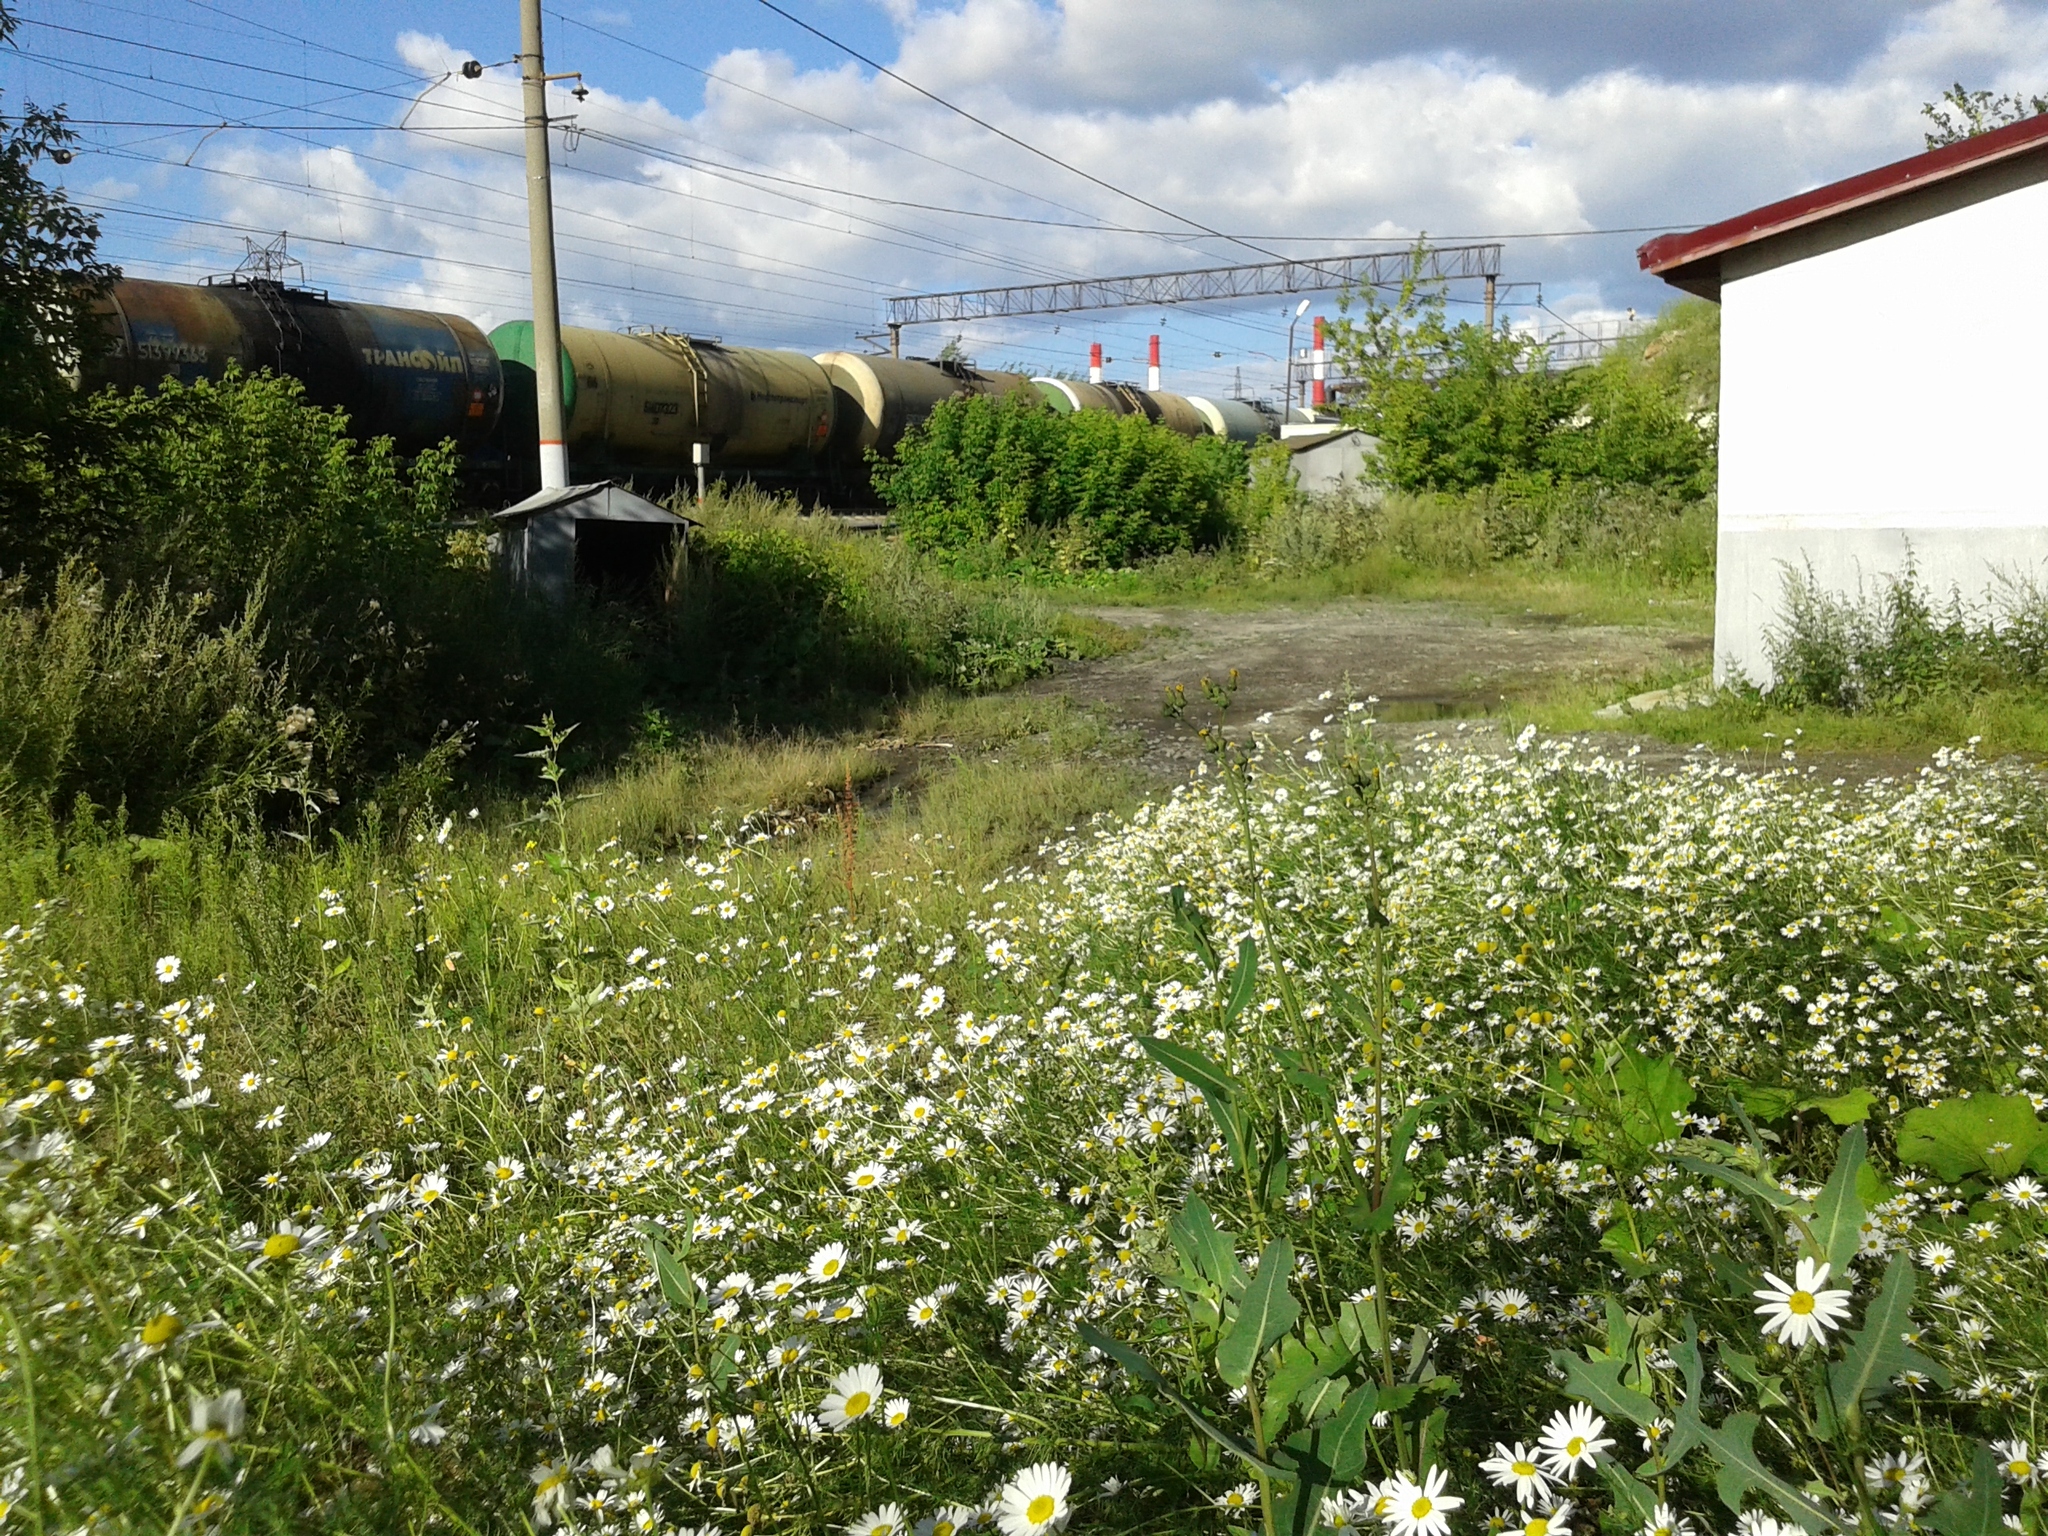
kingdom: Plantae
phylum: Tracheophyta
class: Magnoliopsida
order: Asterales
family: Asteraceae
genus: Tripleurospermum
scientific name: Tripleurospermum inodorum
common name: Scentless mayweed
